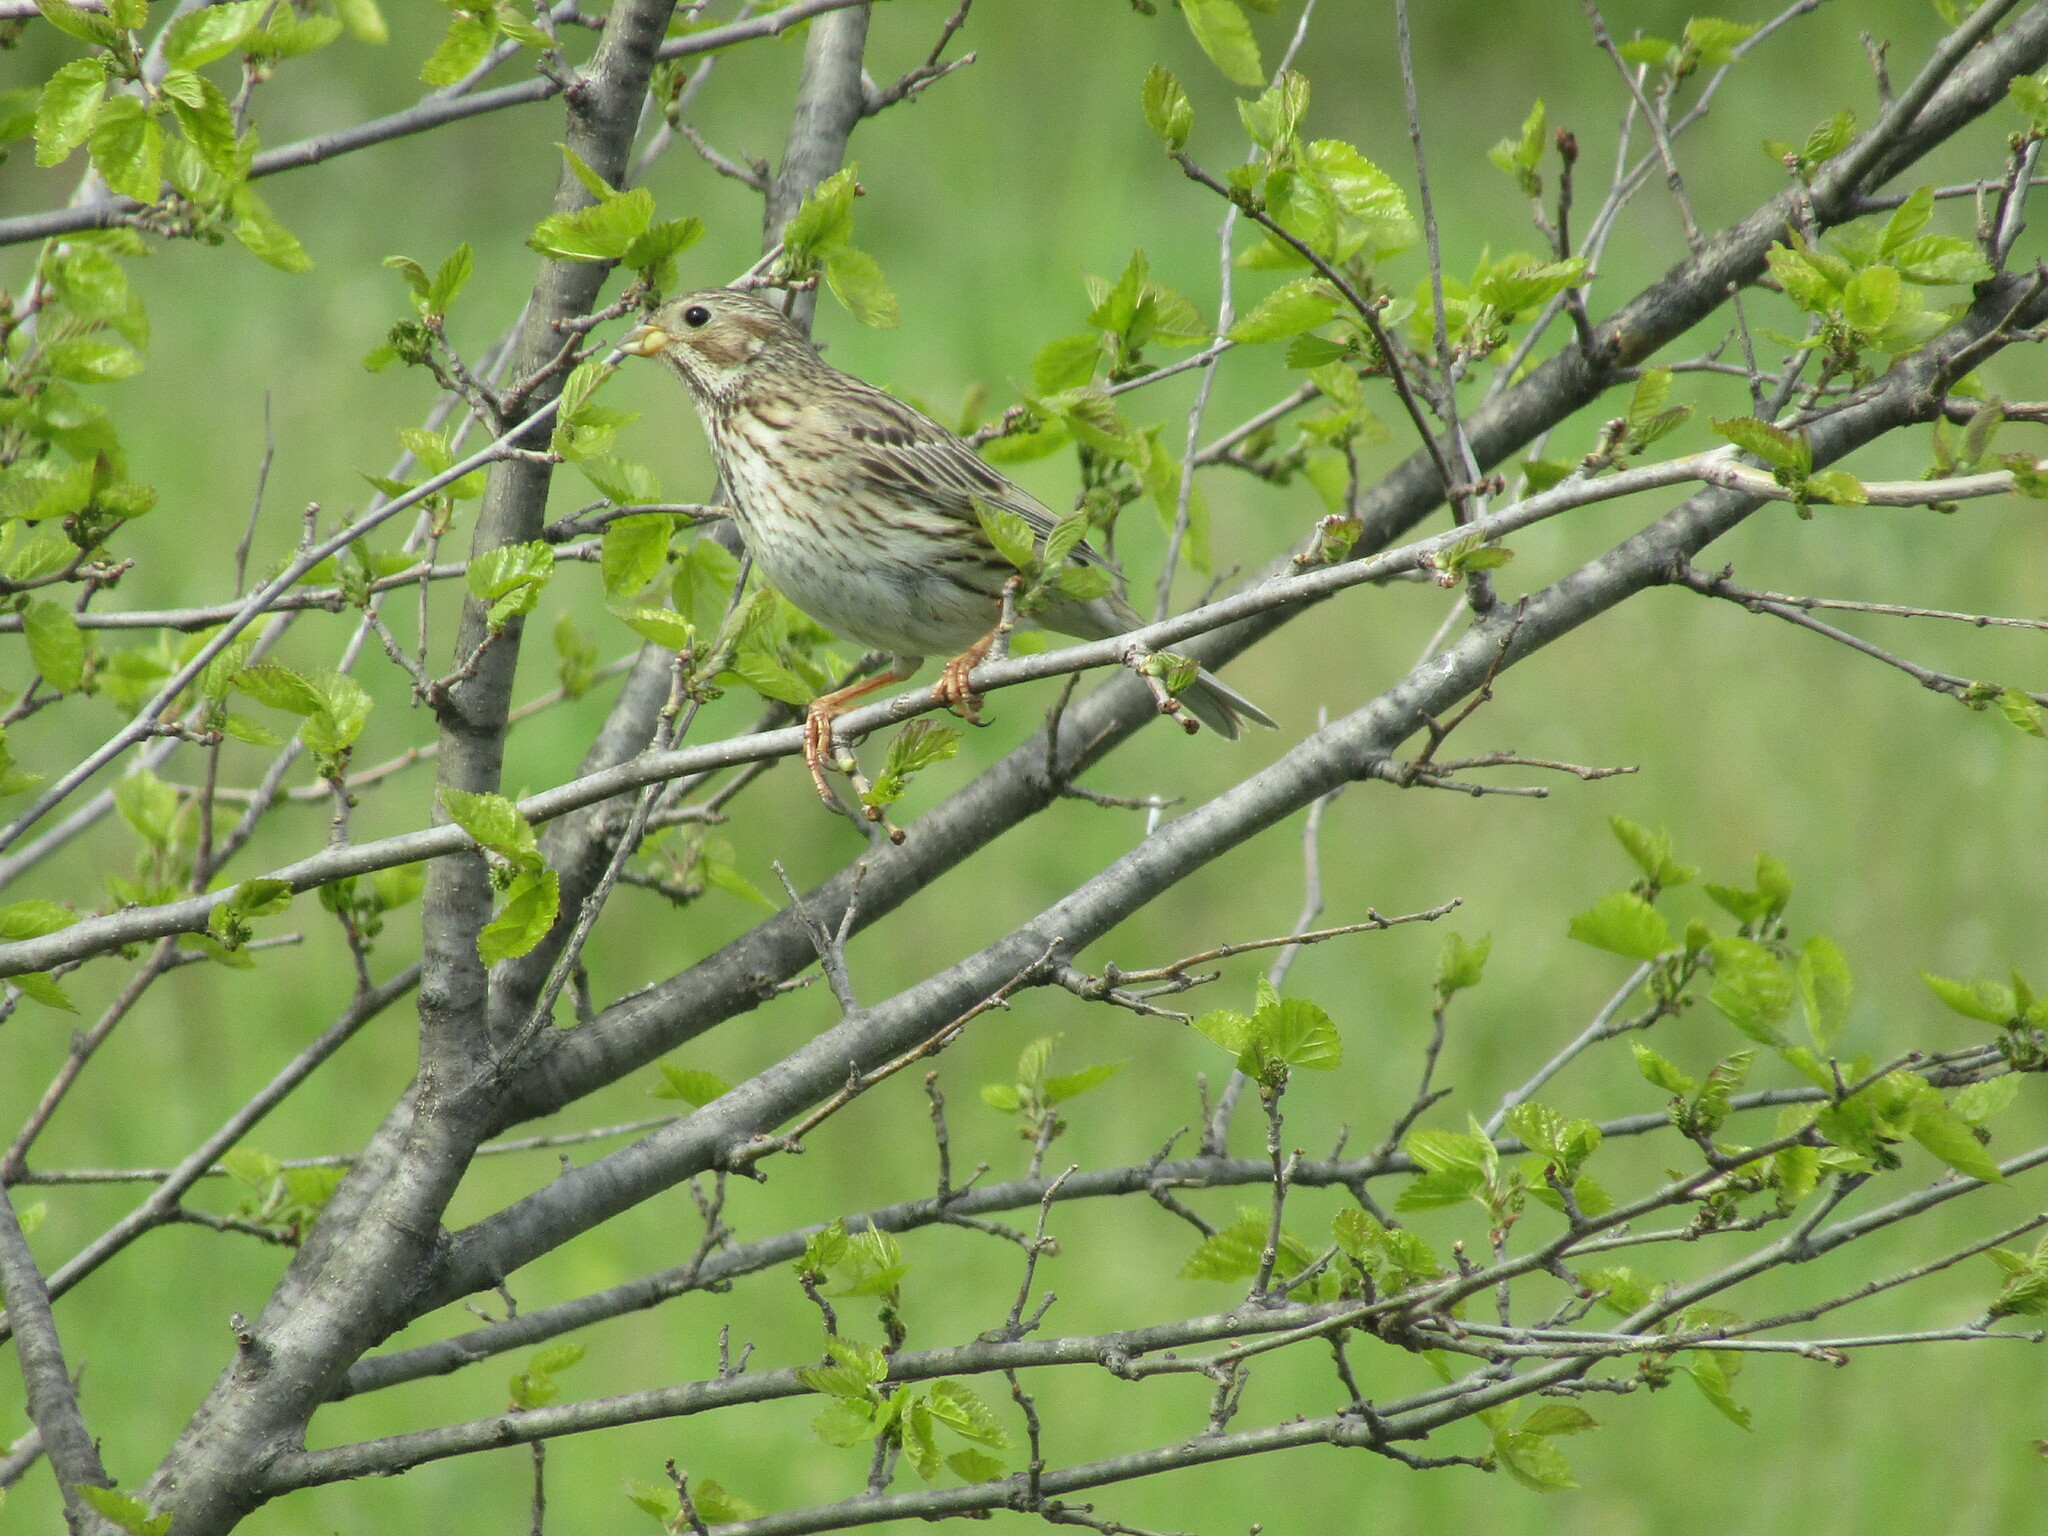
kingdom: Animalia
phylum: Chordata
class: Aves
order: Passeriformes
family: Emberizidae
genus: Emberiza
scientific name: Emberiza calandra
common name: Corn bunting
